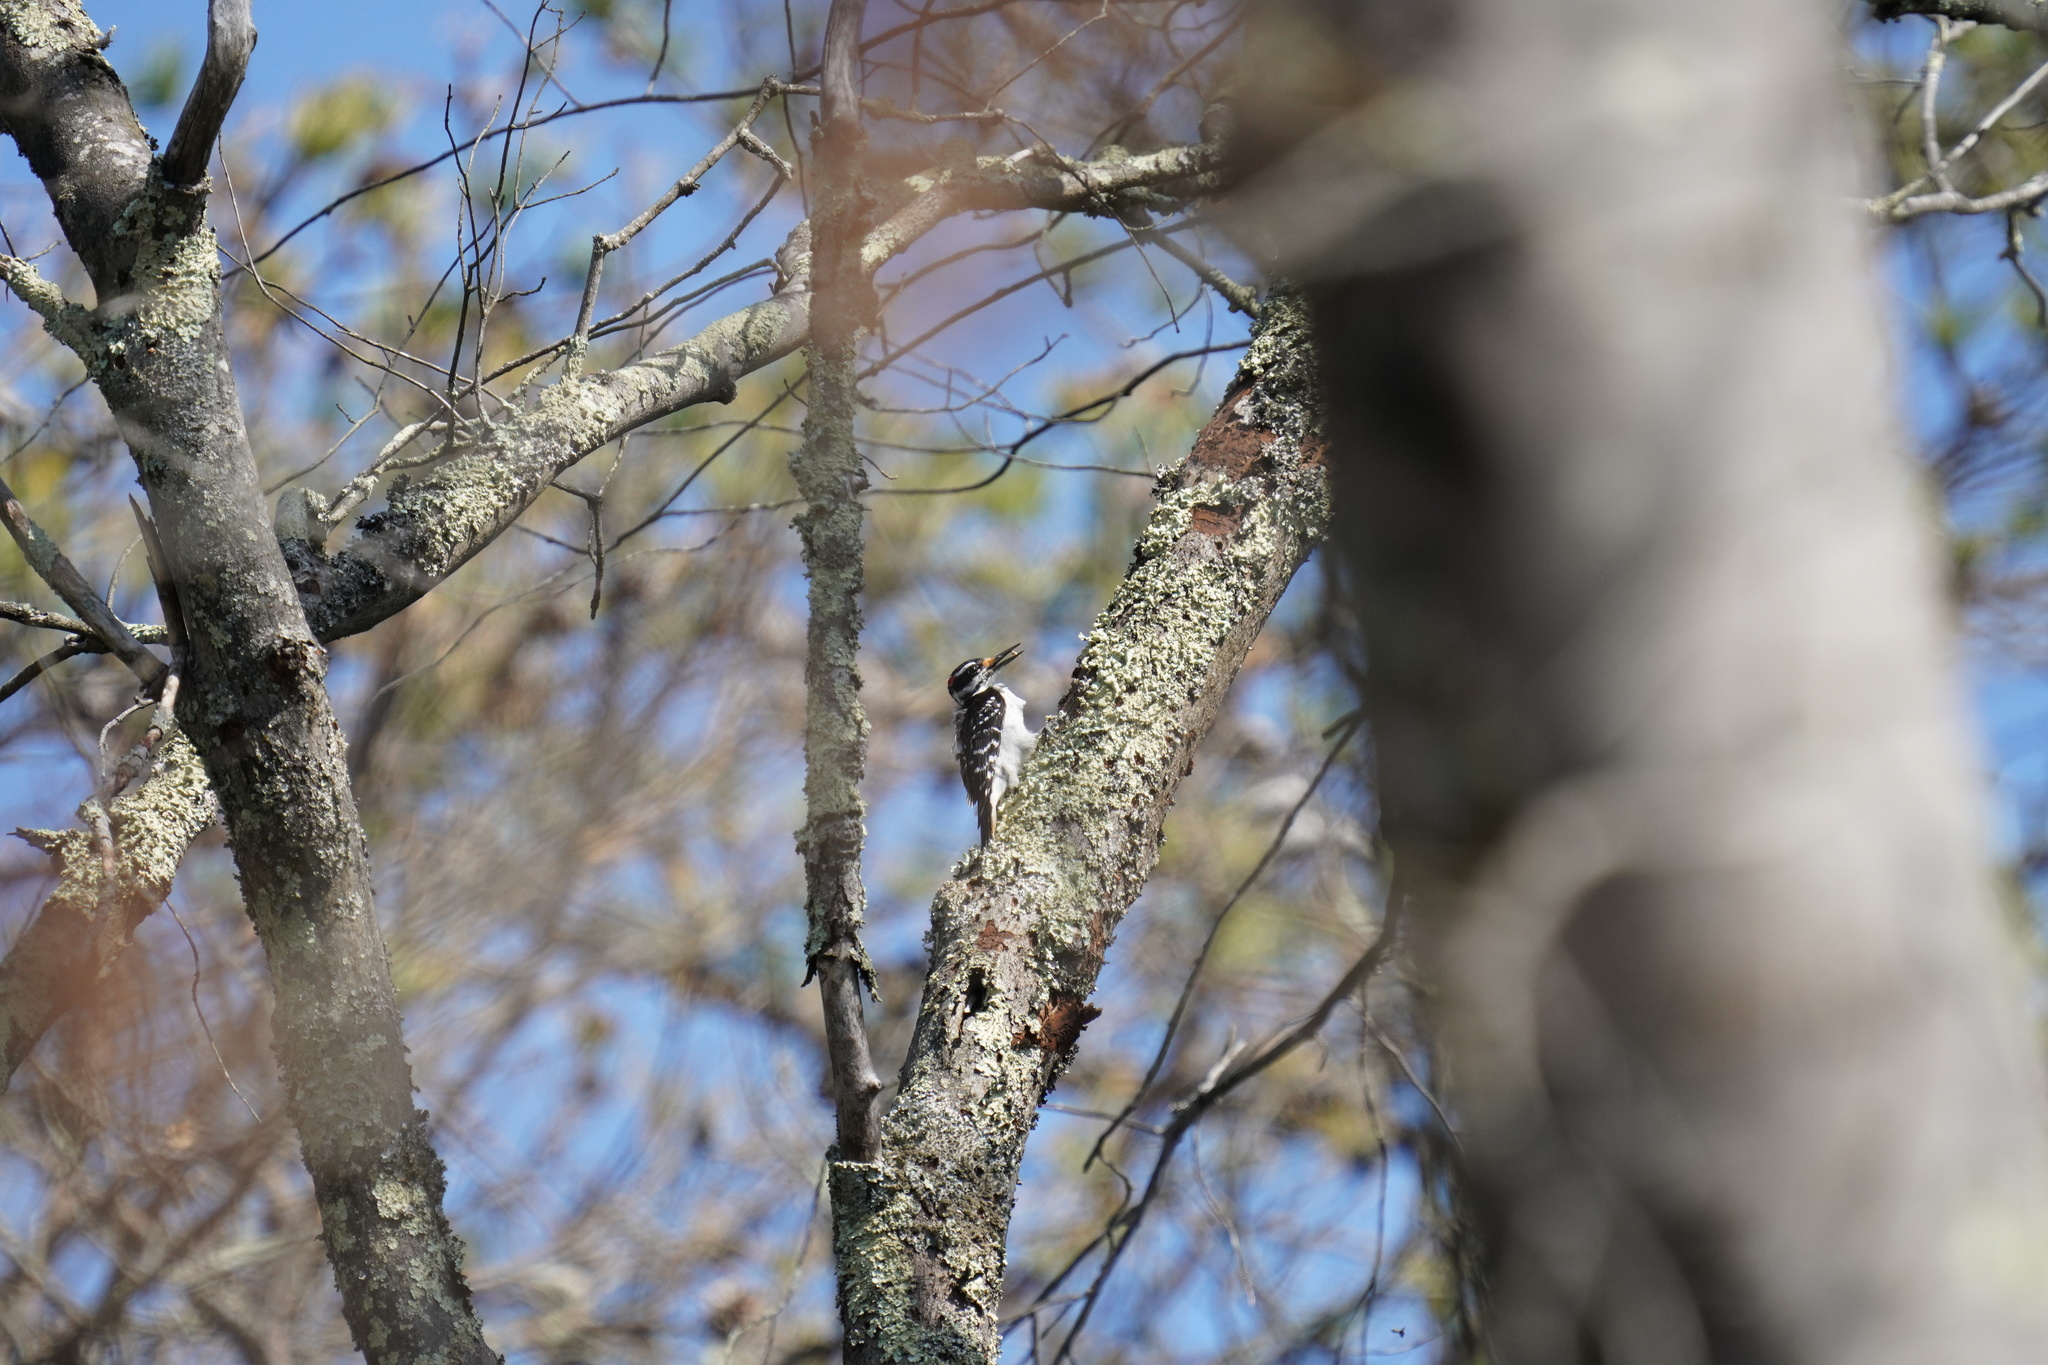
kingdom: Animalia
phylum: Chordata
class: Aves
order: Piciformes
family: Picidae
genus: Leuconotopicus
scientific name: Leuconotopicus villosus
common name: Hairy woodpecker
